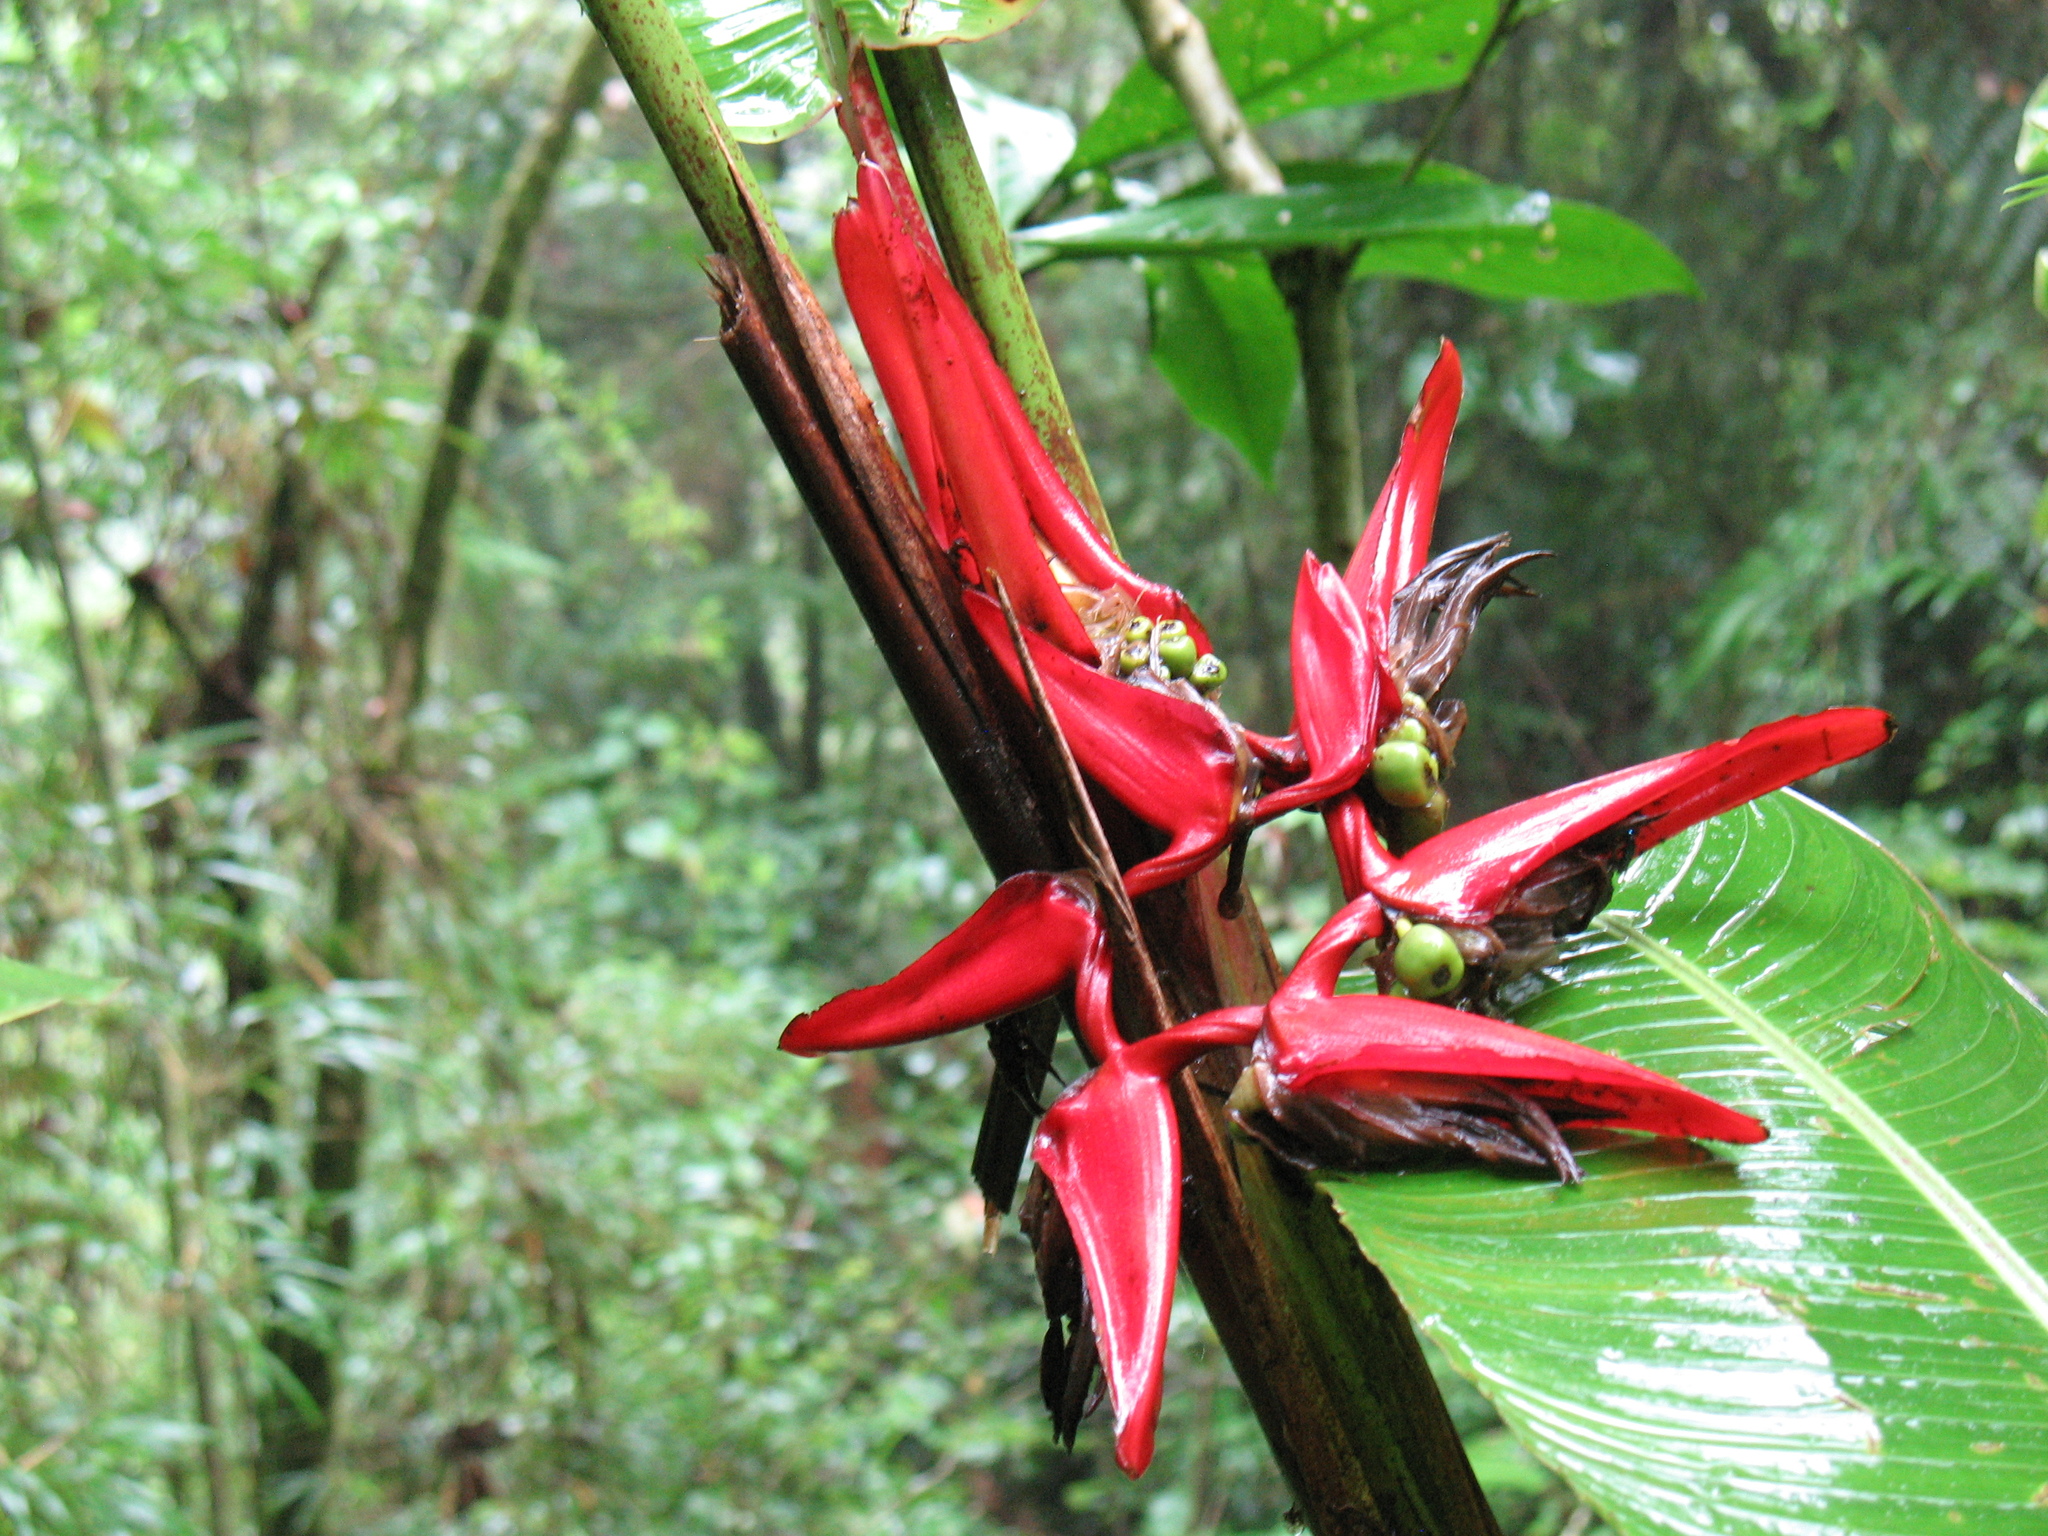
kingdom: Plantae
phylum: Tracheophyta
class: Liliopsida
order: Zingiberales
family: Heliconiaceae
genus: Heliconia
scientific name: Heliconia secunda
